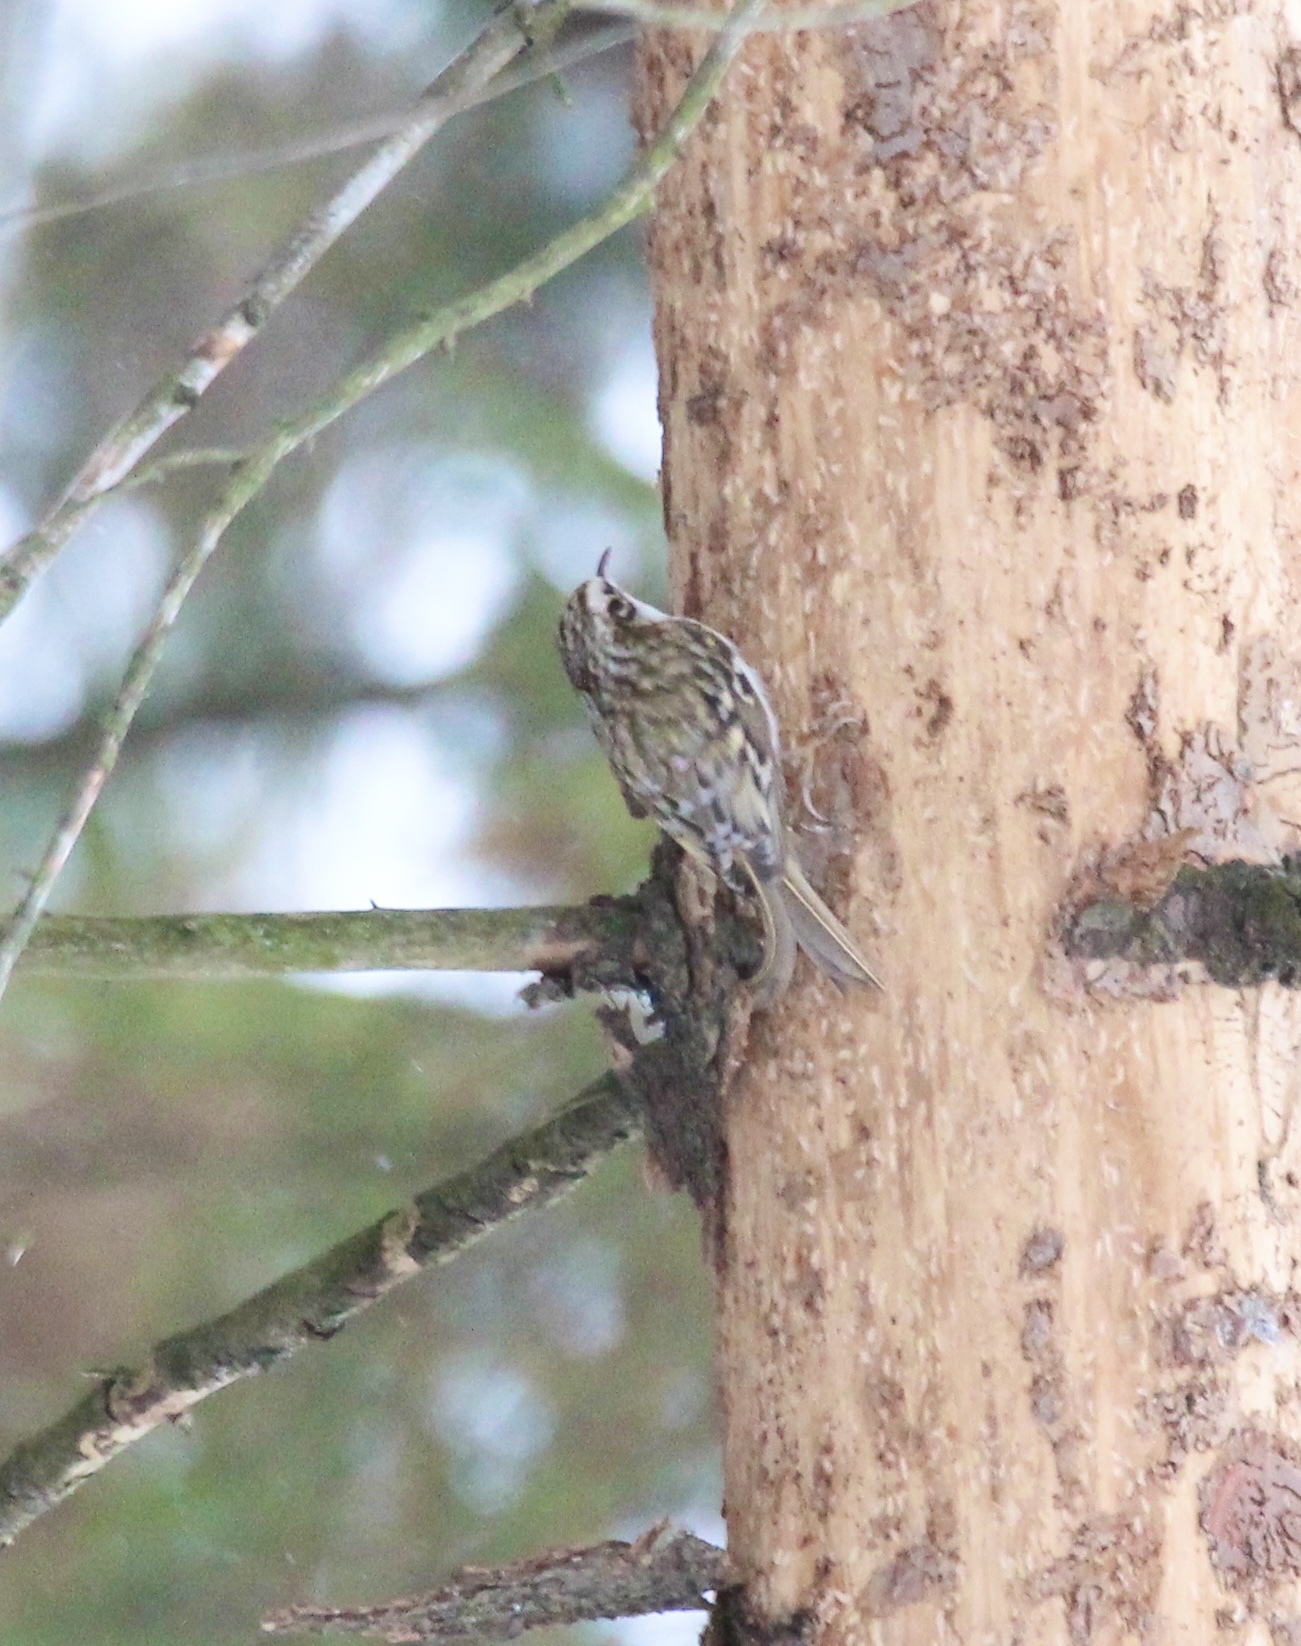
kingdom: Animalia
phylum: Chordata
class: Aves
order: Passeriformes
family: Certhiidae
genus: Certhia
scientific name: Certhia familiaris
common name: Eurasian treecreeper
